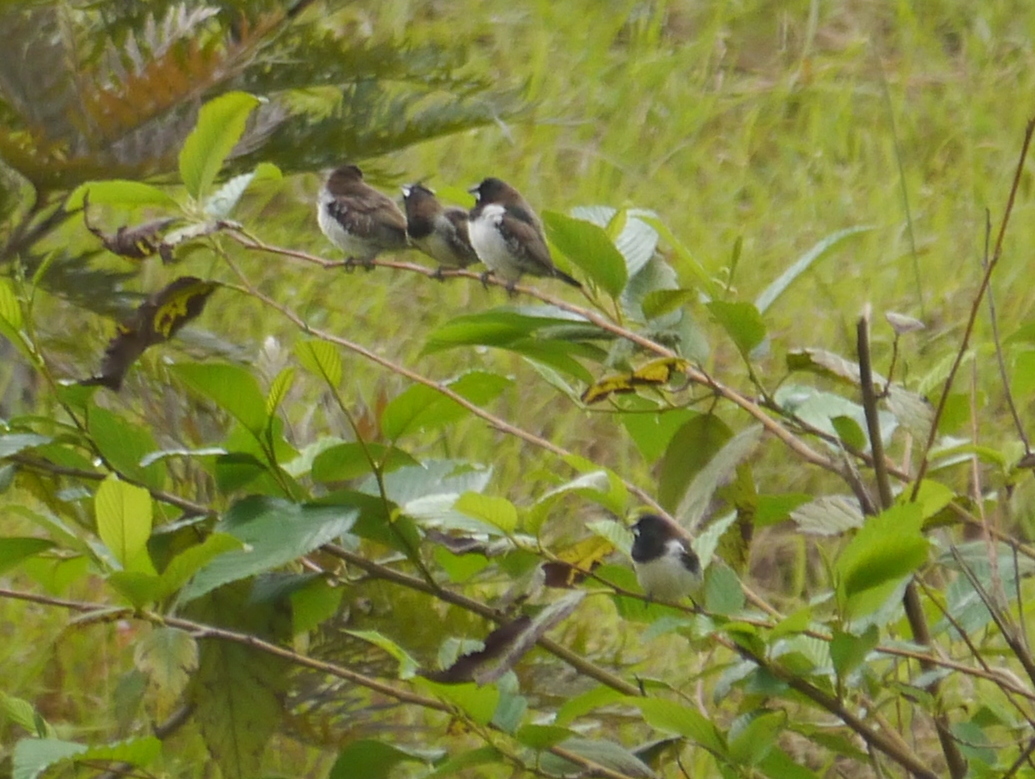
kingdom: Animalia
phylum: Chordata
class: Aves
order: Passeriformes
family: Estrildidae
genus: Lonchura
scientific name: Lonchura cucullata
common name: Bronze mannikin
